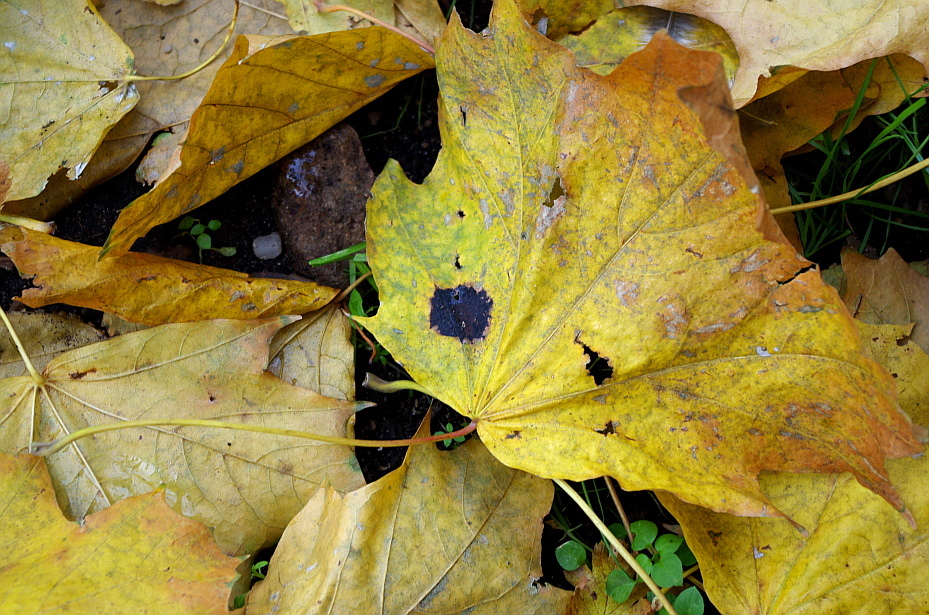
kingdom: Fungi
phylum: Ascomycota
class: Leotiomycetes
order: Rhytismatales
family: Rhytismataceae
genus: Rhytisma
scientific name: Rhytisma acerinum
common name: European tar spot
